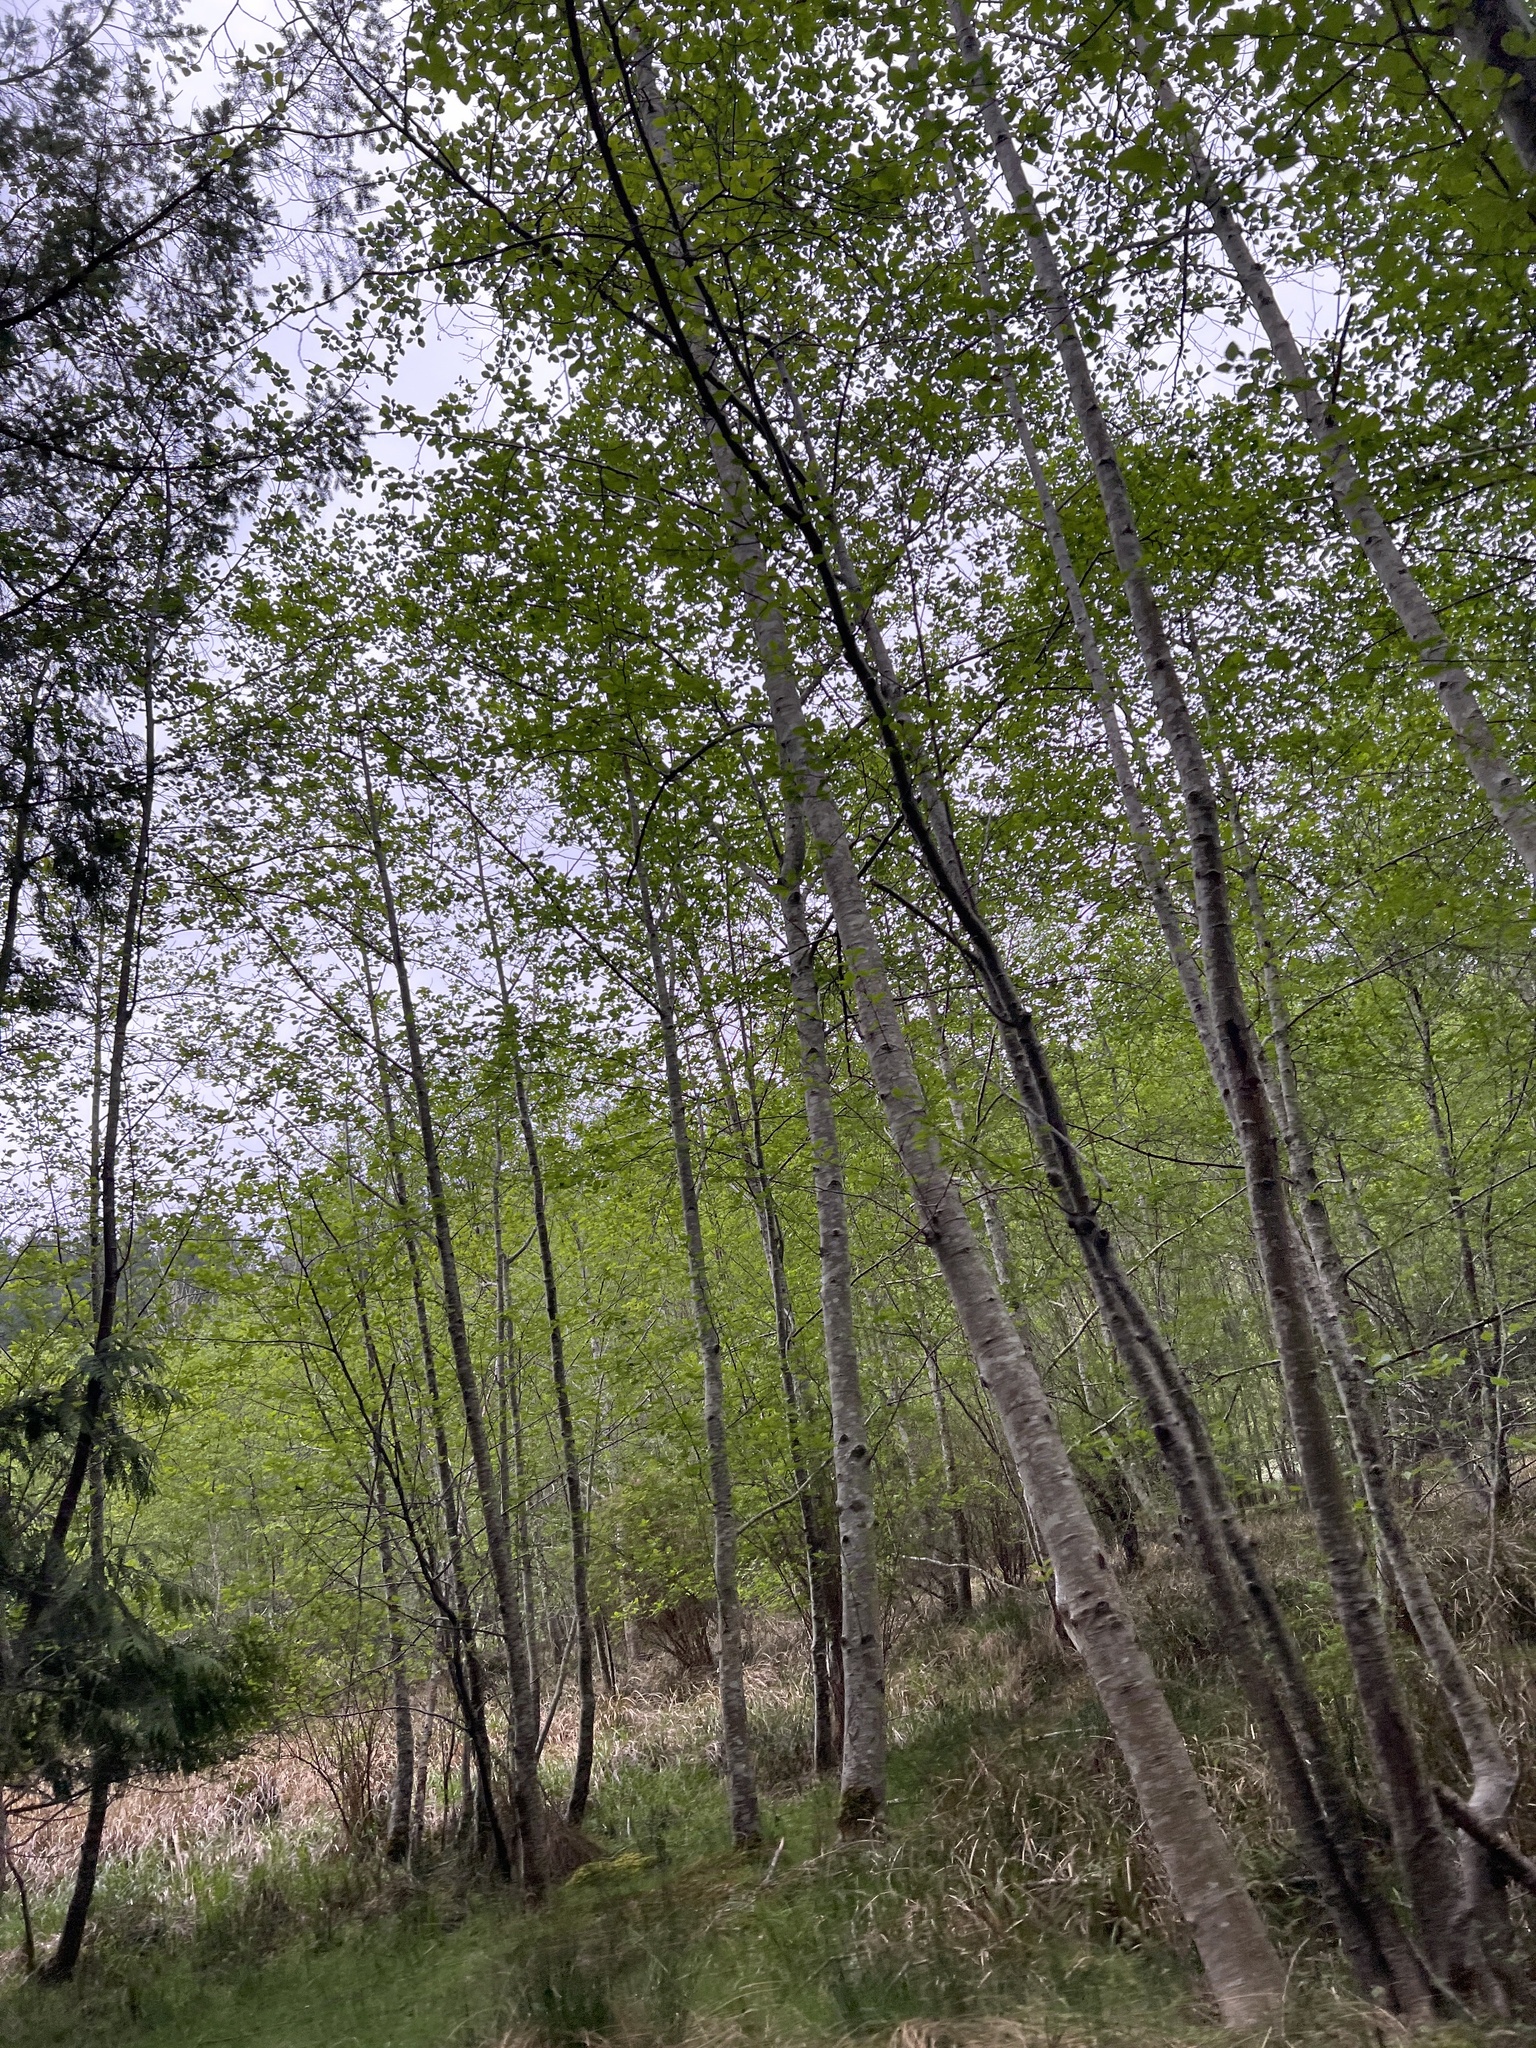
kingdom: Plantae
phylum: Tracheophyta
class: Magnoliopsida
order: Fagales
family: Betulaceae
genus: Alnus
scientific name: Alnus rubra
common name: Red alder
